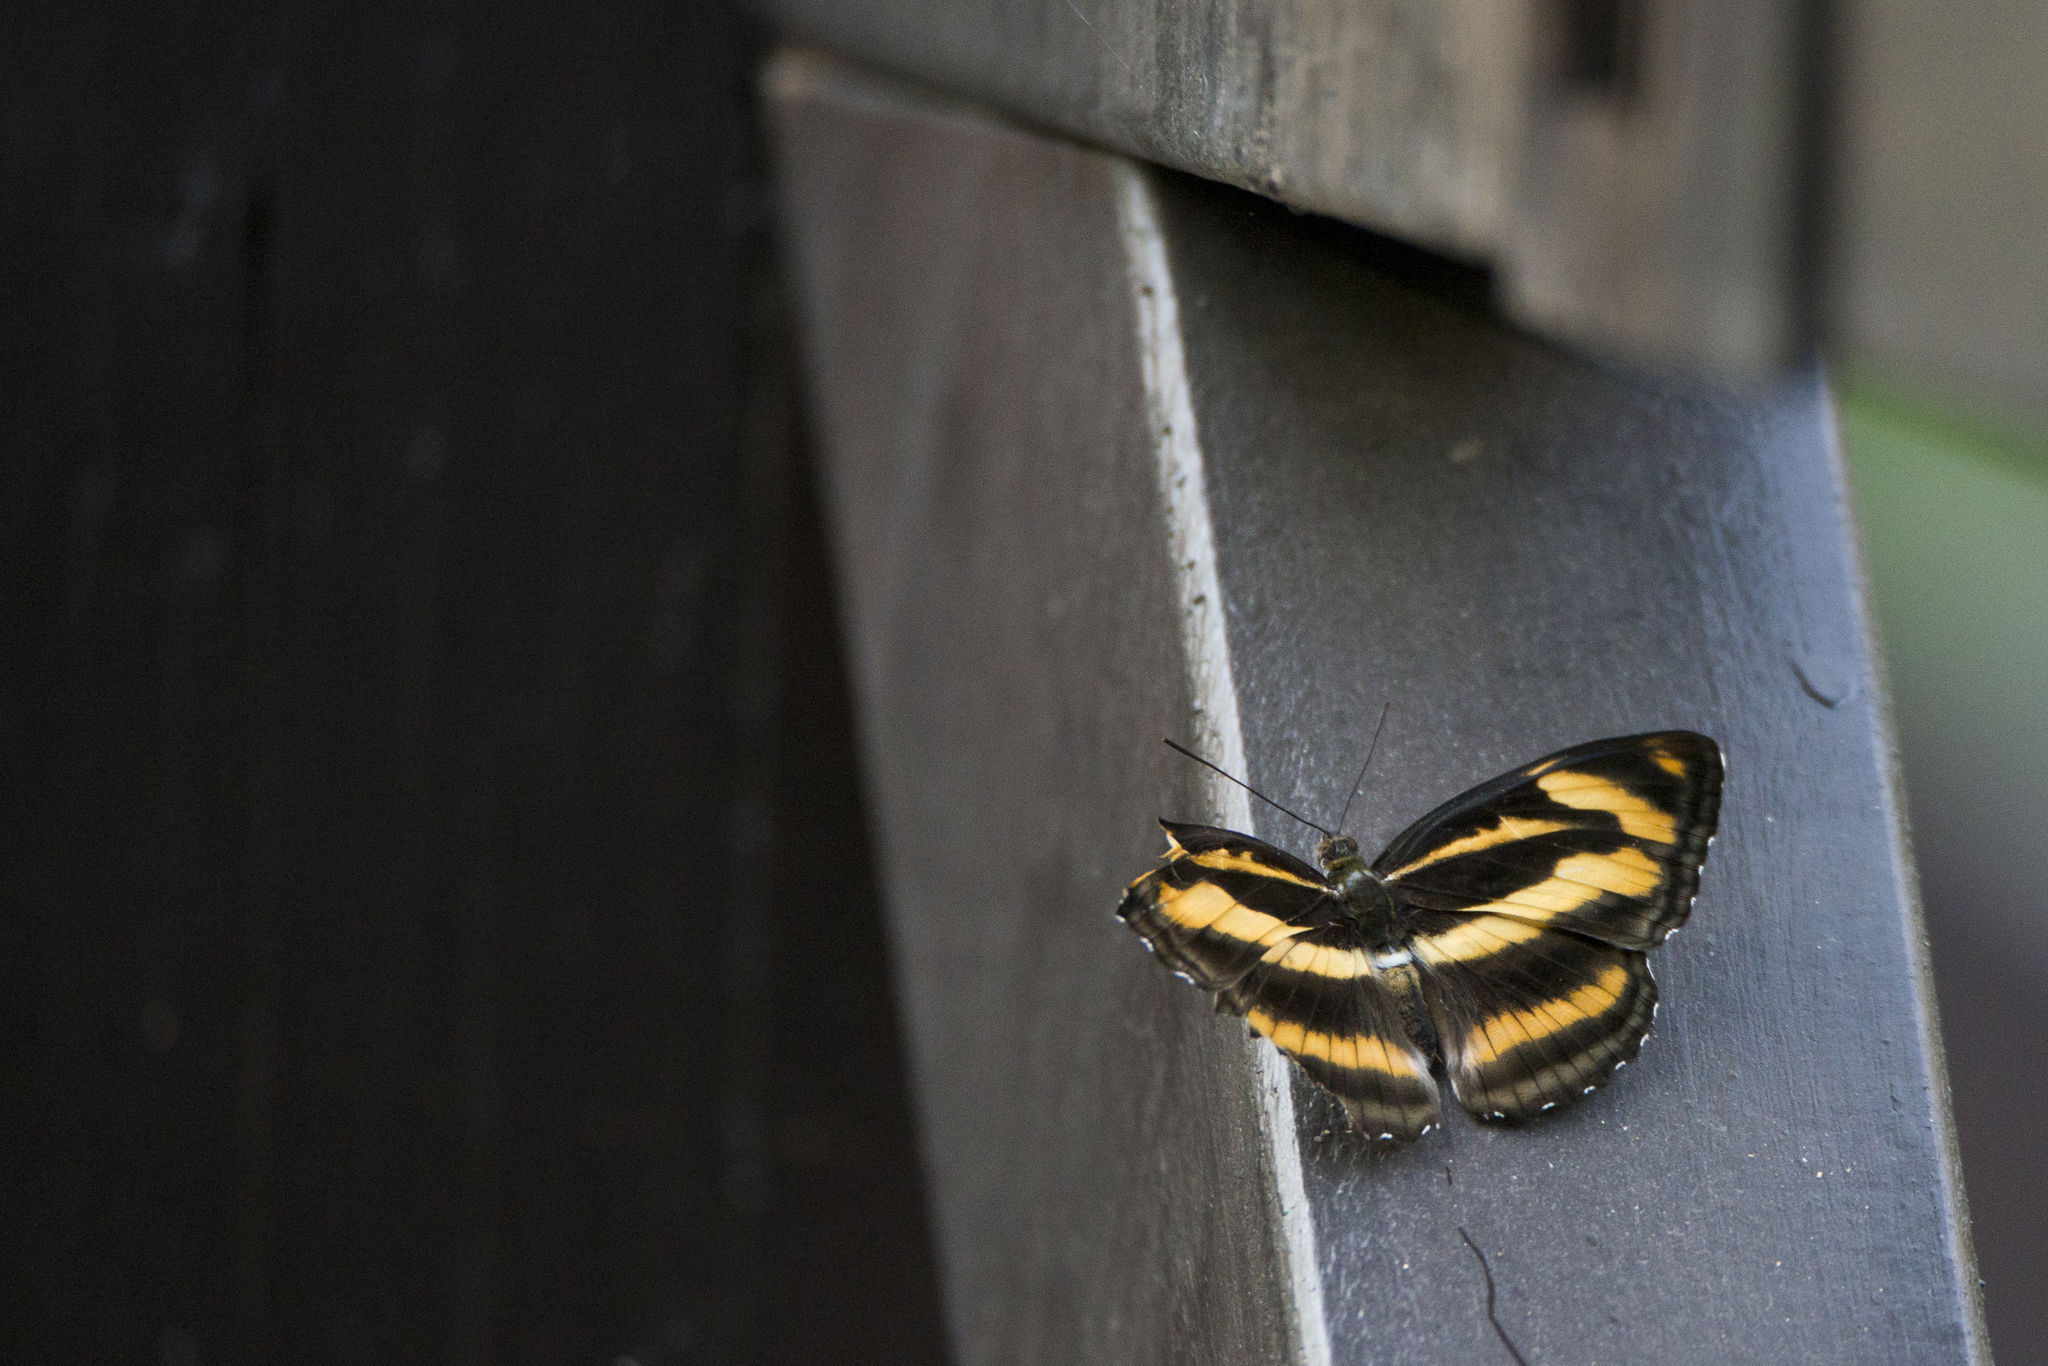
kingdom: Animalia
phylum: Arthropoda
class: Insecta
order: Lepidoptera
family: Nymphalidae
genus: Pantoporia
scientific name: Pantoporia cama
